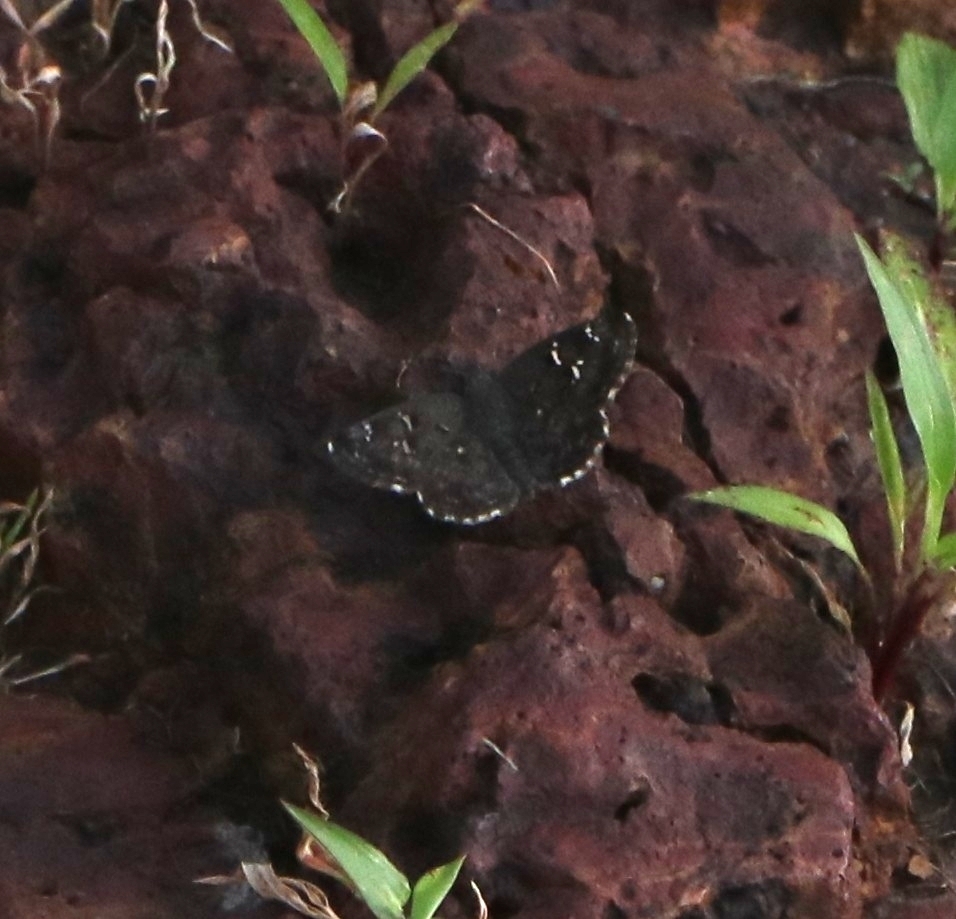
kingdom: Animalia
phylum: Arthropoda
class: Insecta
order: Lepidoptera
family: Hesperiidae
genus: Sarangesa
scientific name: Sarangesa purendra
